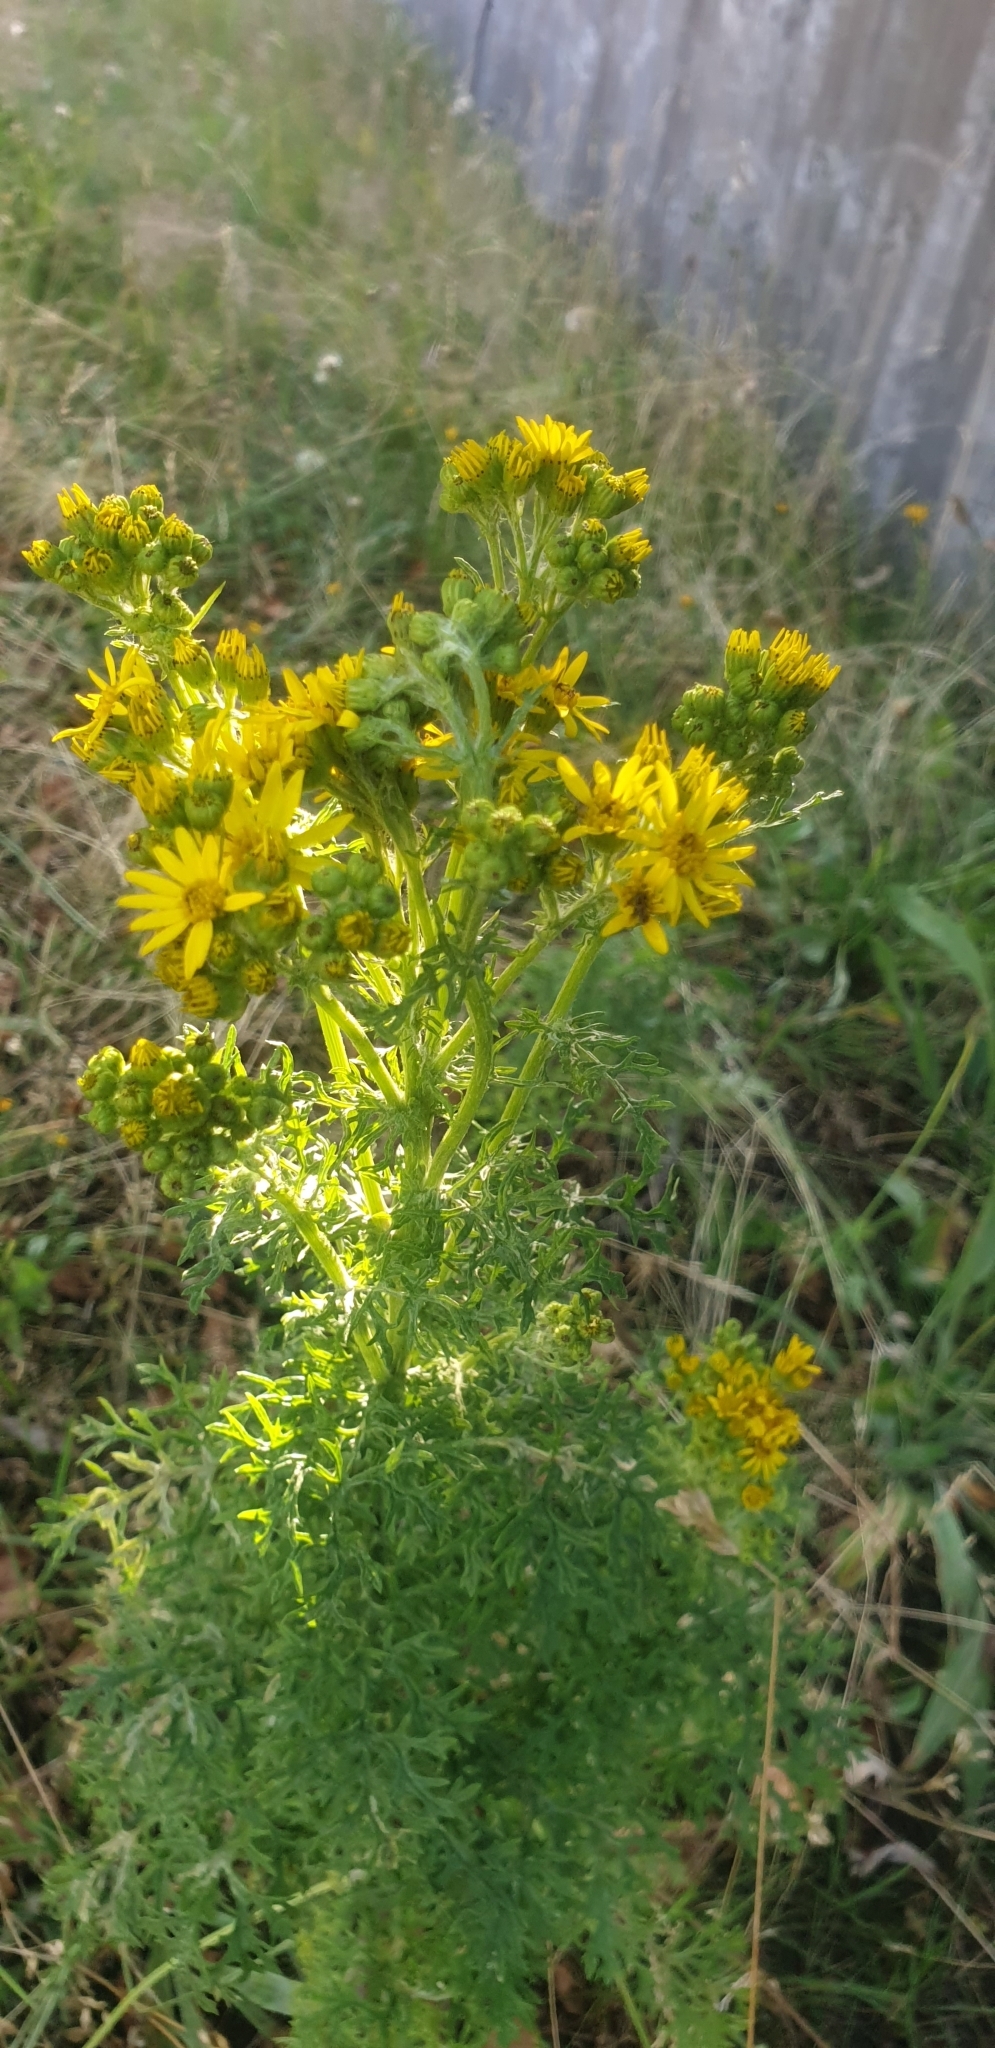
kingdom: Plantae
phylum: Tracheophyta
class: Magnoliopsida
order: Asterales
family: Asteraceae
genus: Jacobaea
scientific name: Jacobaea vulgaris
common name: Stinking willie
